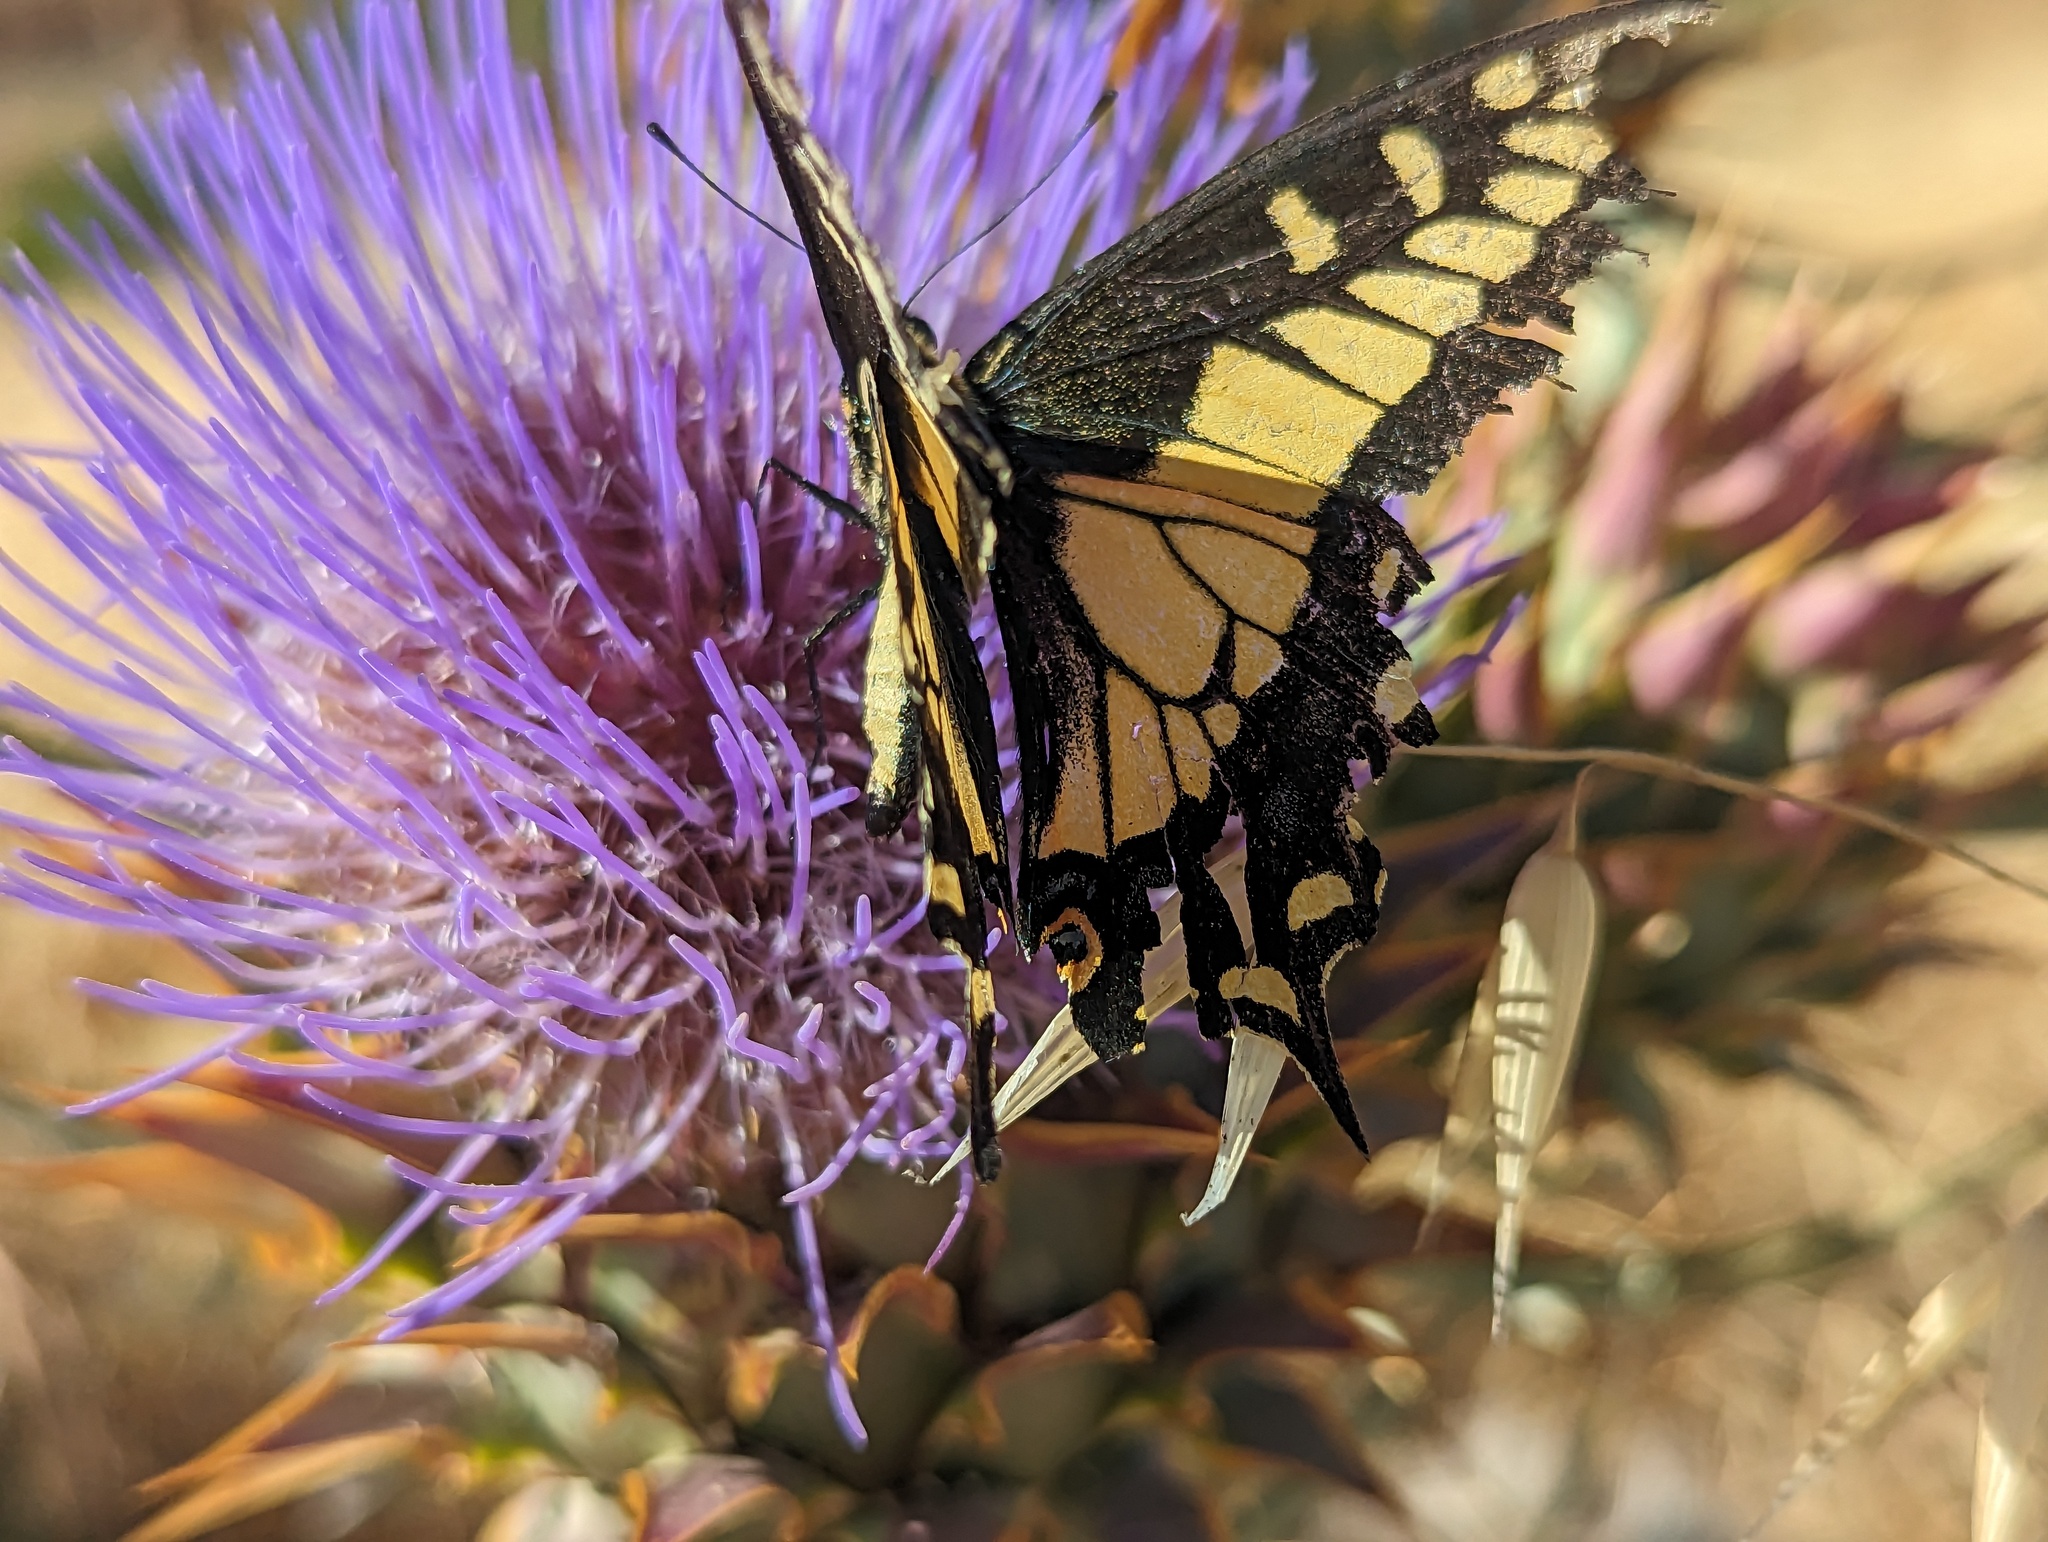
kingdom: Animalia
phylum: Arthropoda
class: Insecta
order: Lepidoptera
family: Papilionidae
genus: Papilio
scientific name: Papilio zelicaon
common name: Anise swallowtail
